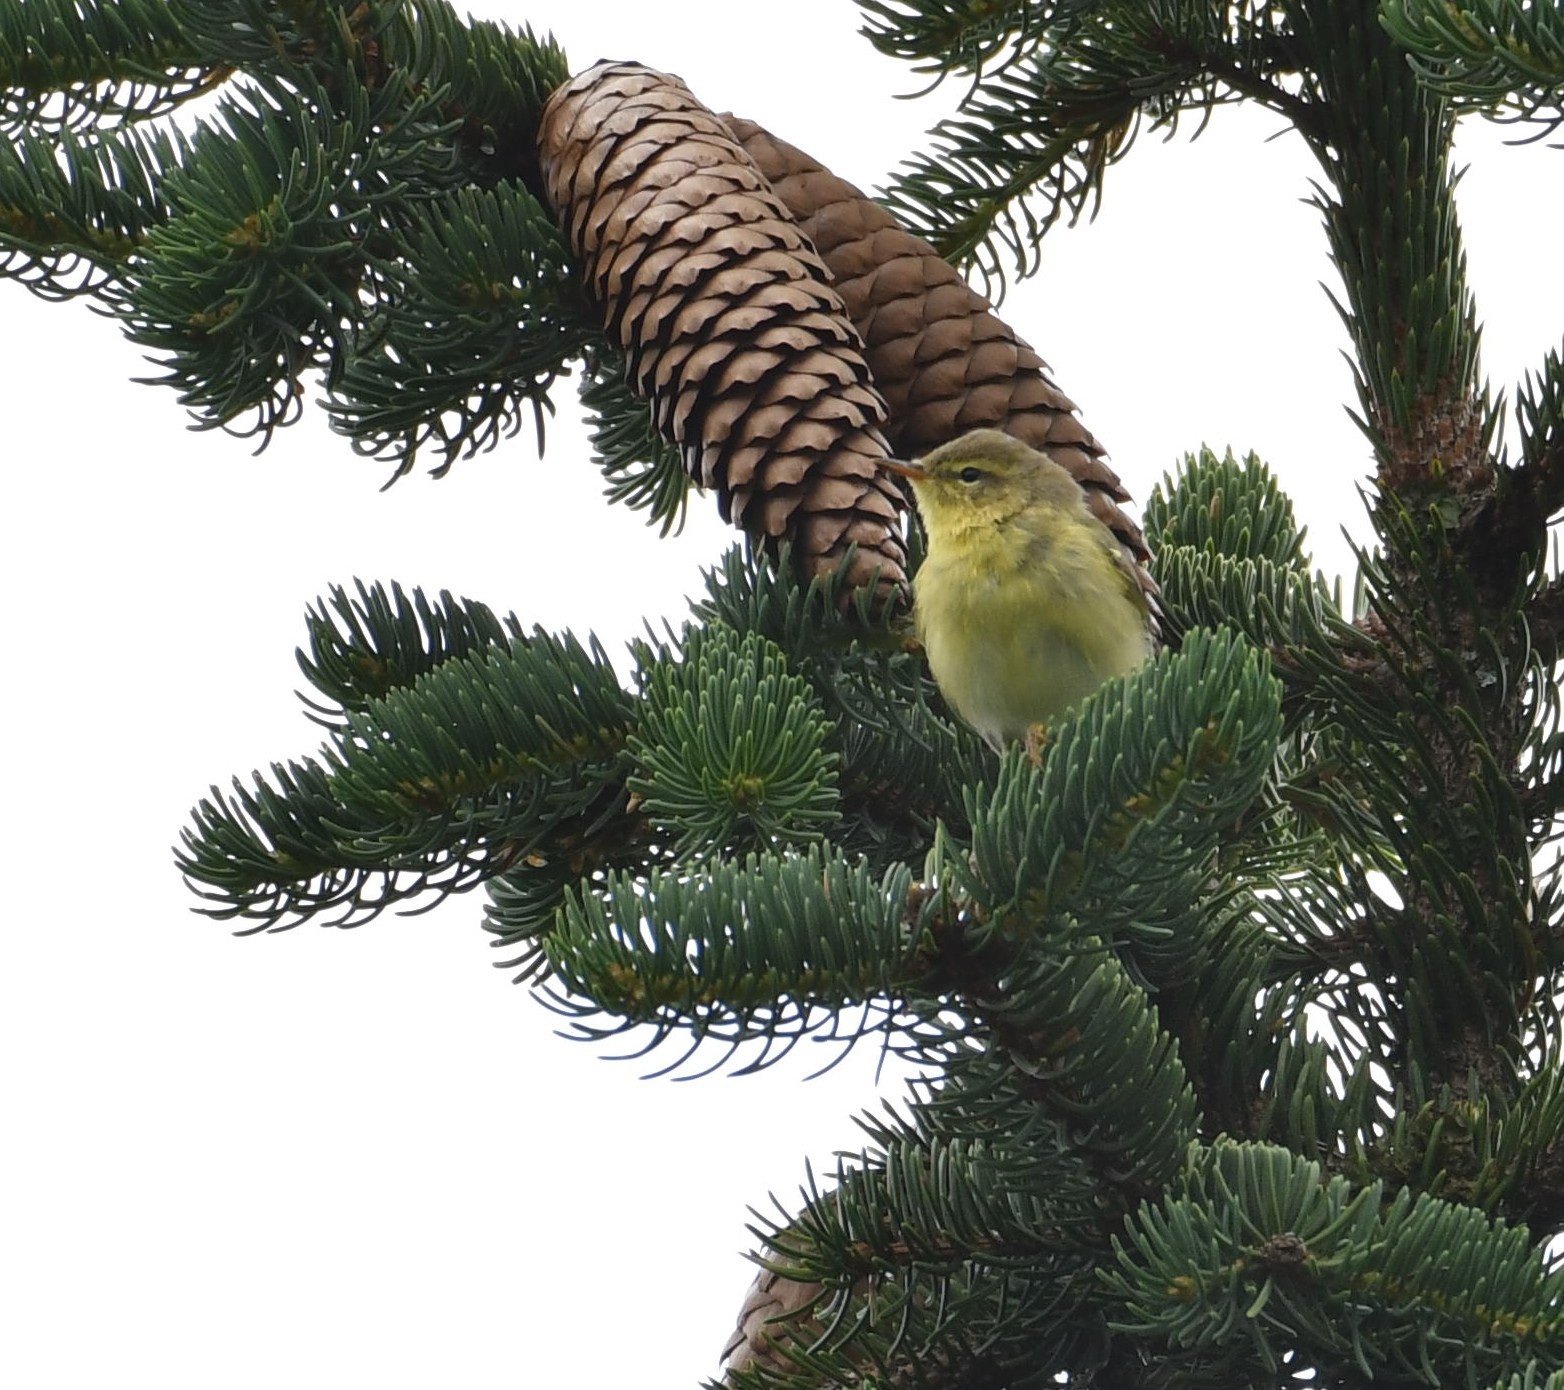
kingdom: Animalia
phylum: Chordata
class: Aves
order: Passeriformes
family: Phylloscopidae
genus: Phylloscopus
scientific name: Phylloscopus trochilus
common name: Willow warbler
